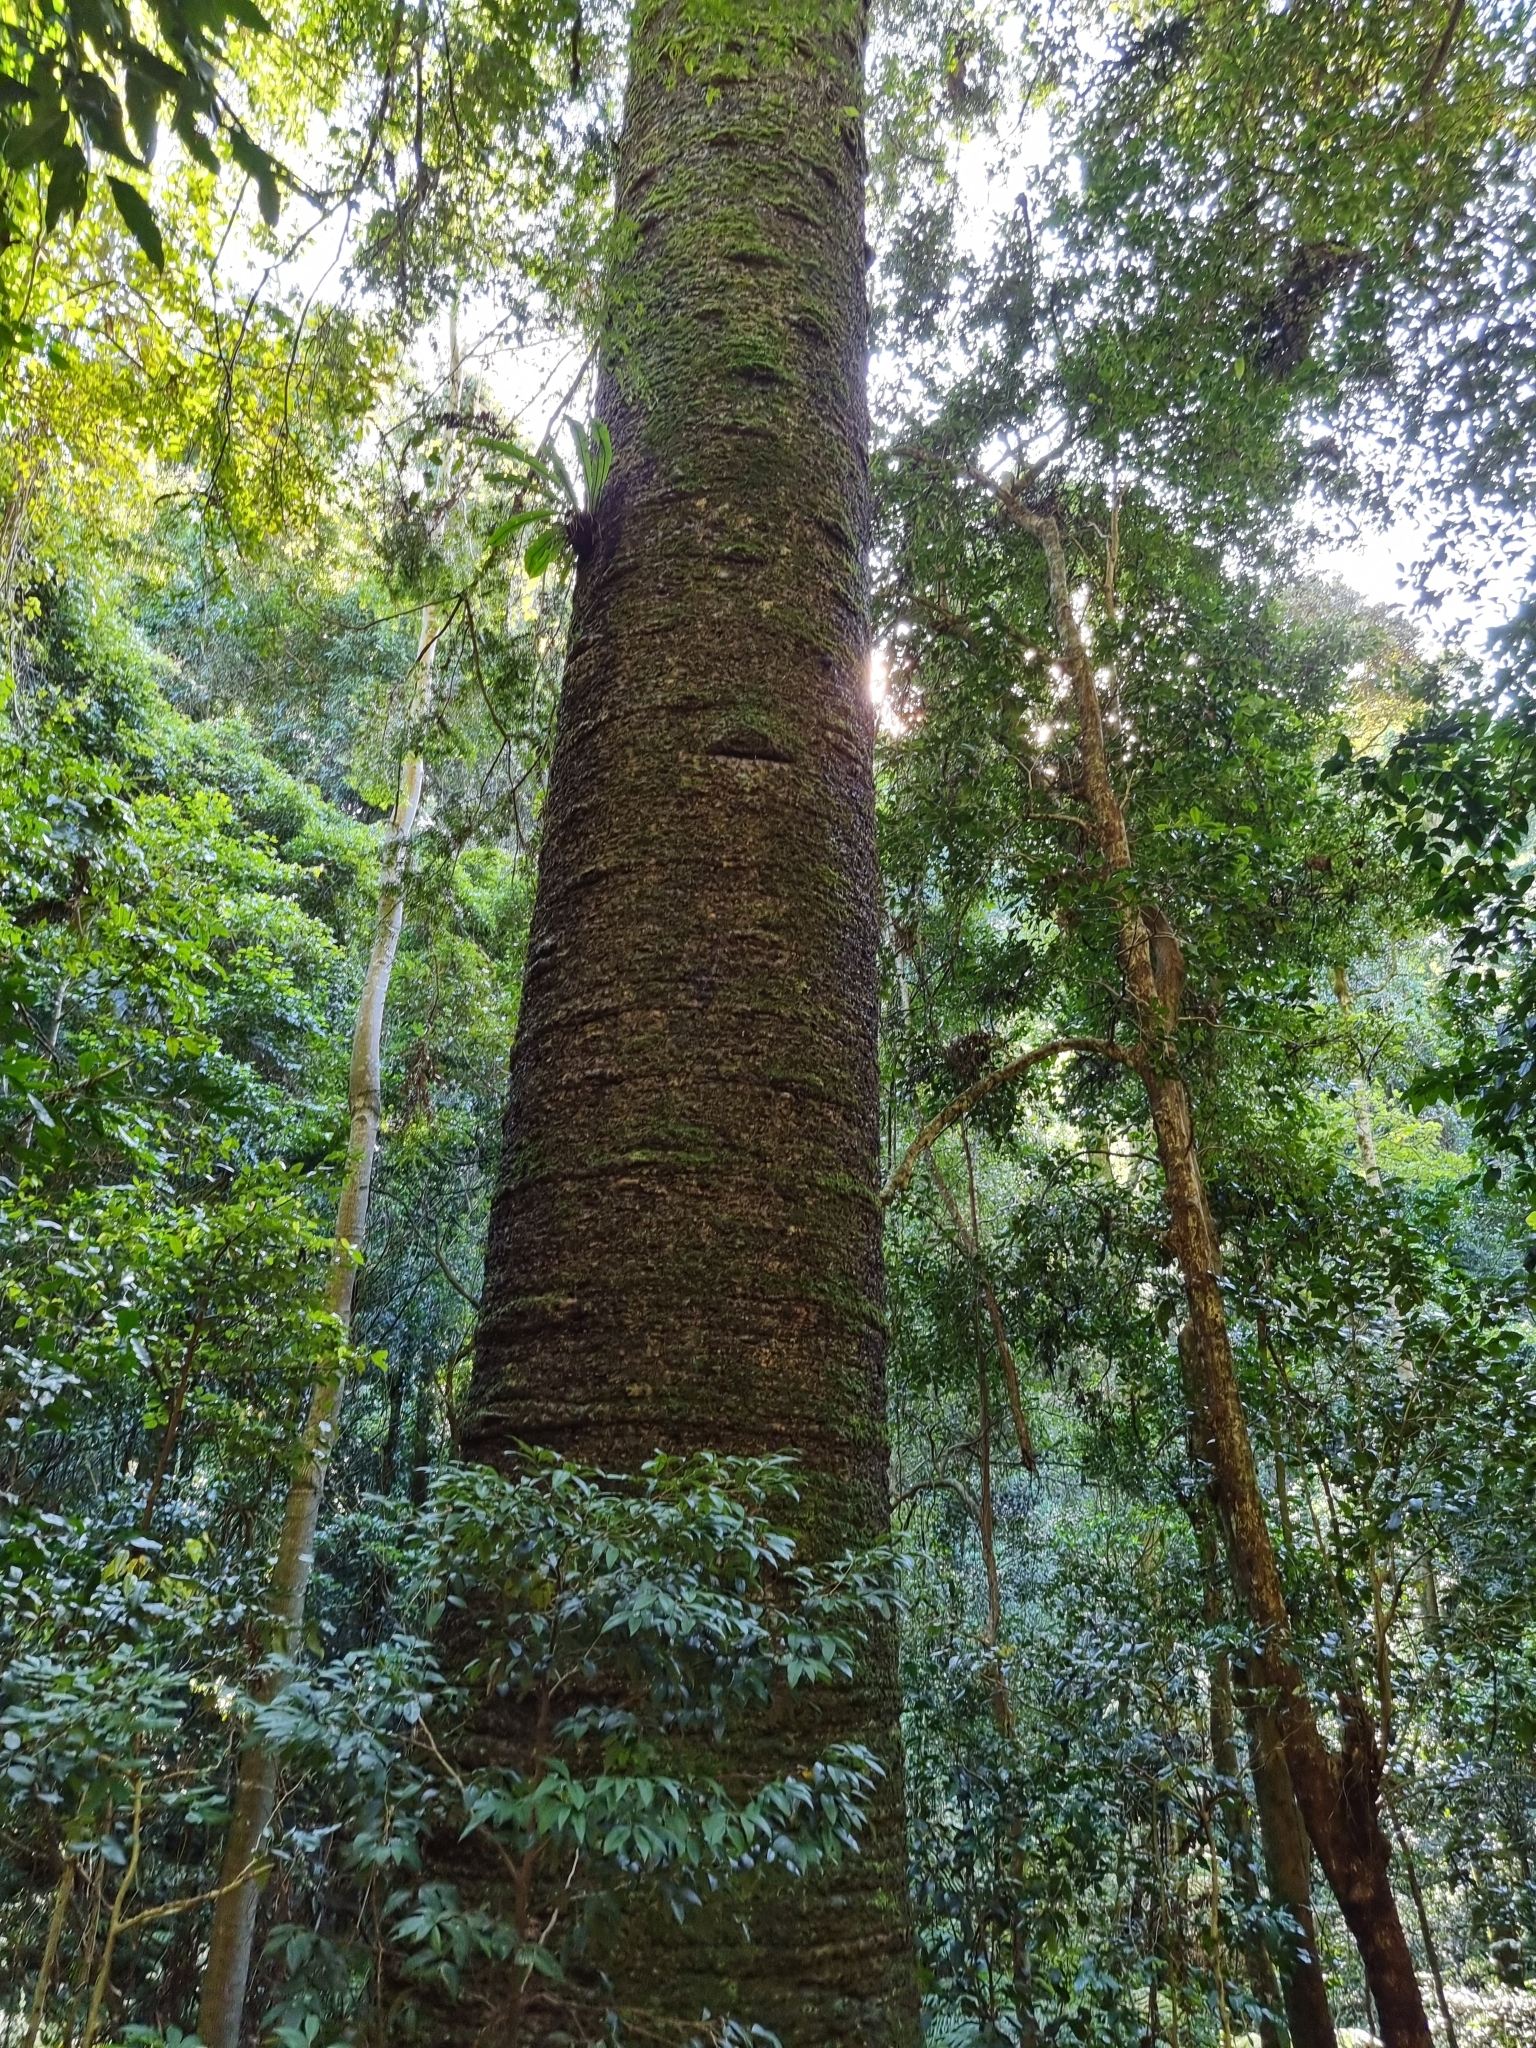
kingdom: Plantae
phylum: Tracheophyta
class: Pinopsida
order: Pinales
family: Araucariaceae
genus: Araucaria
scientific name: Araucaria bidwillii
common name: Moreton-bay-pine
